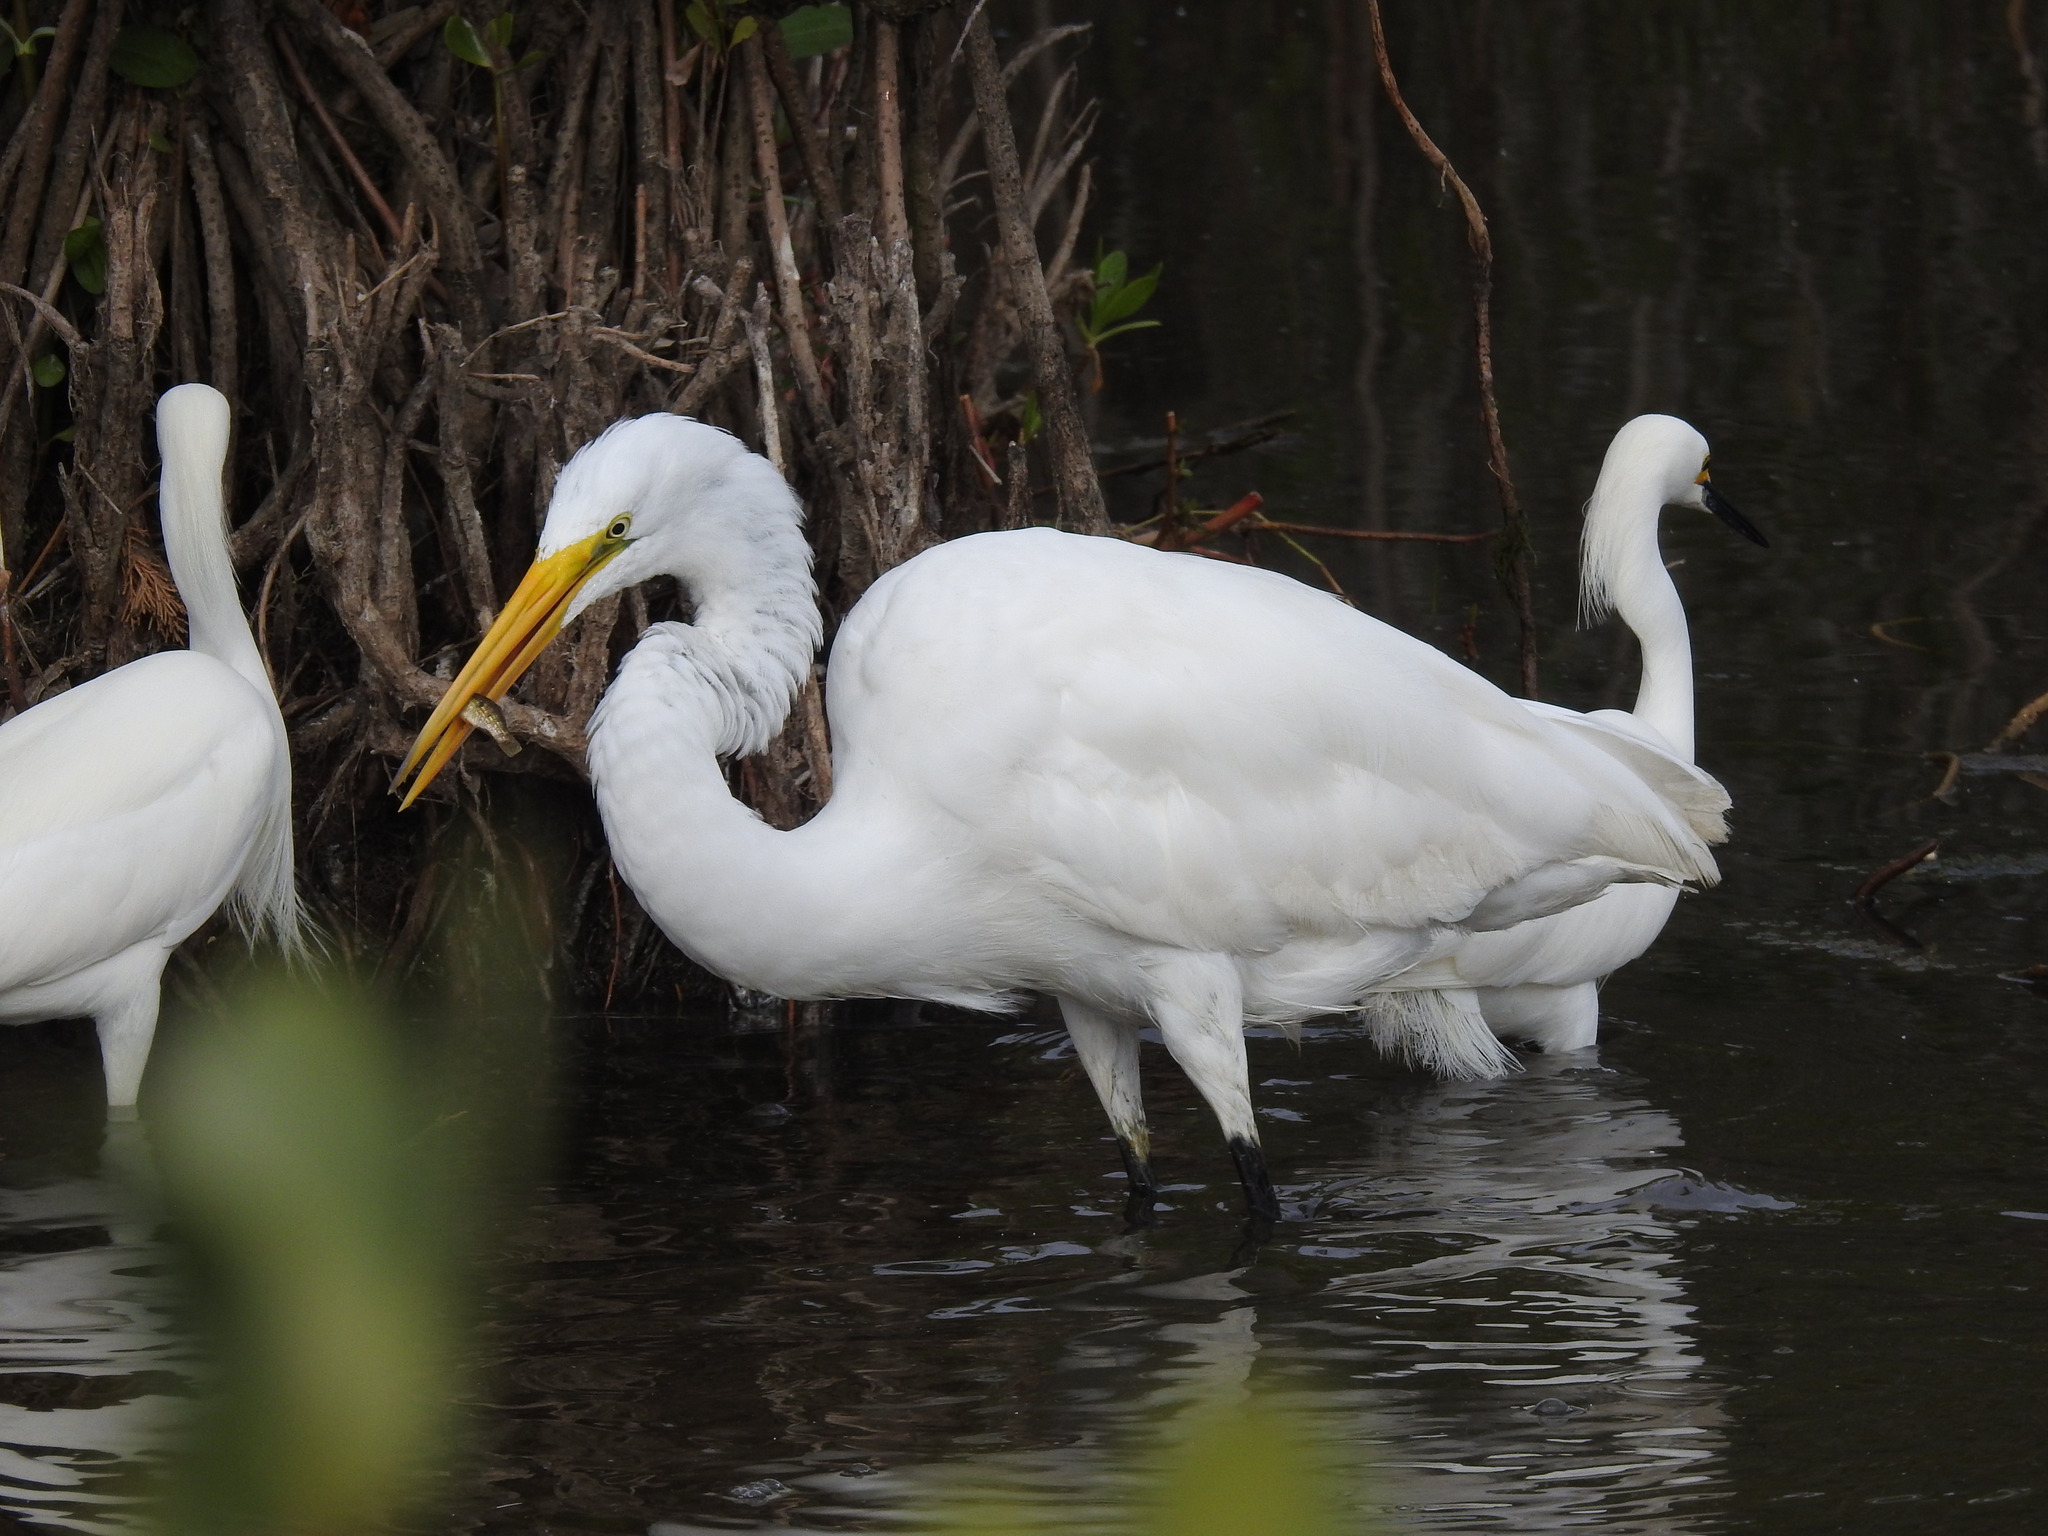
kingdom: Animalia
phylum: Chordata
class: Aves
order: Pelecaniformes
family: Ardeidae
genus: Ardea
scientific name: Ardea alba
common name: Great egret
